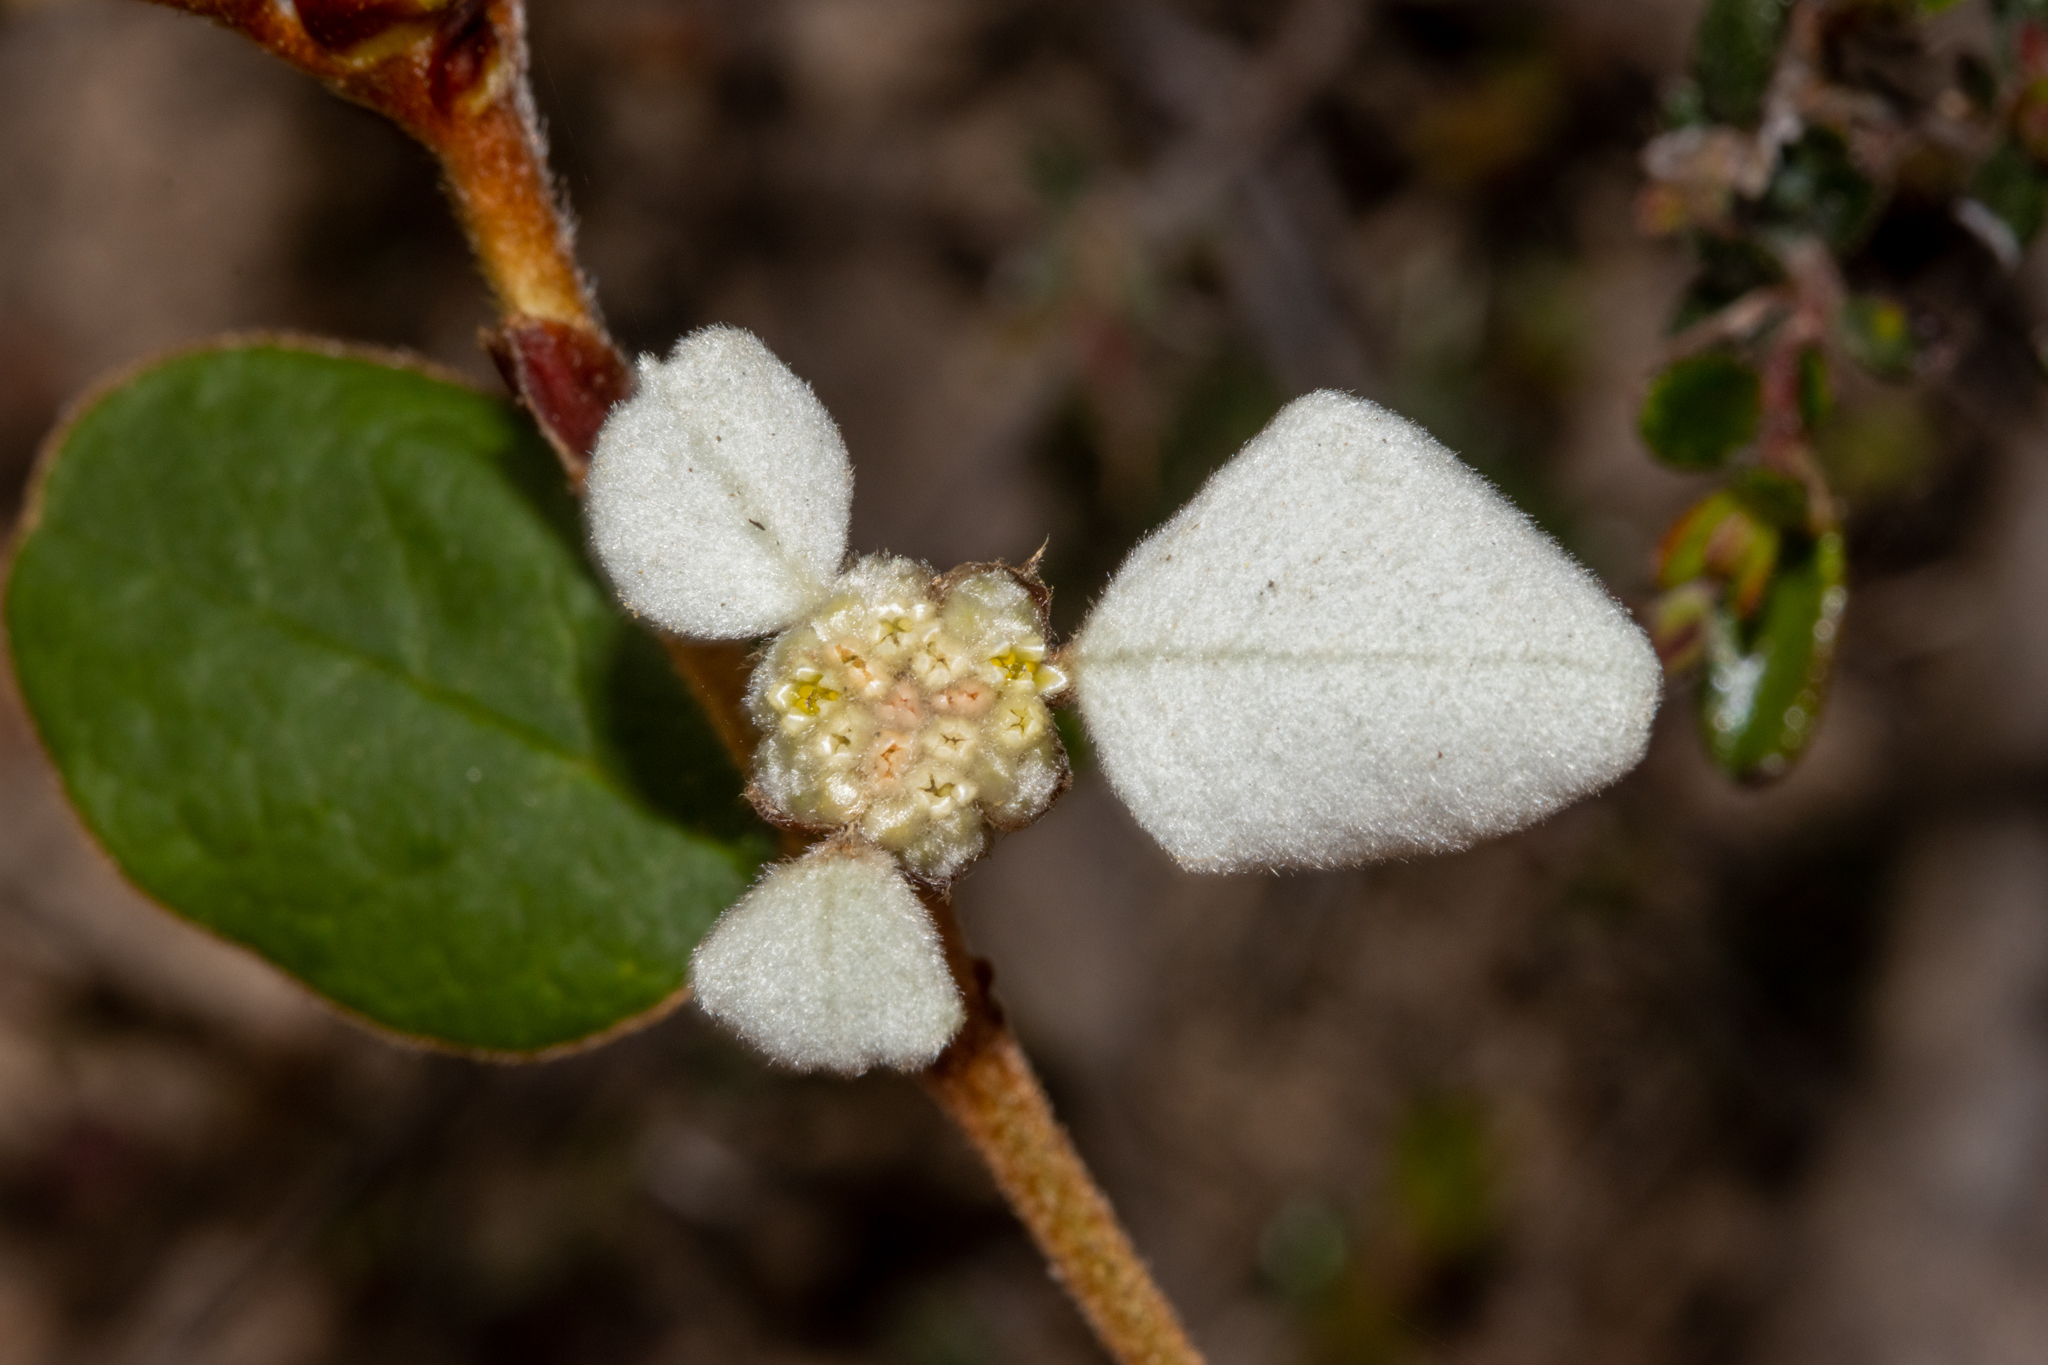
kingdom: Plantae
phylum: Tracheophyta
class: Magnoliopsida
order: Rosales
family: Rhamnaceae
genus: Spyridium
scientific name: Spyridium thymifolium
